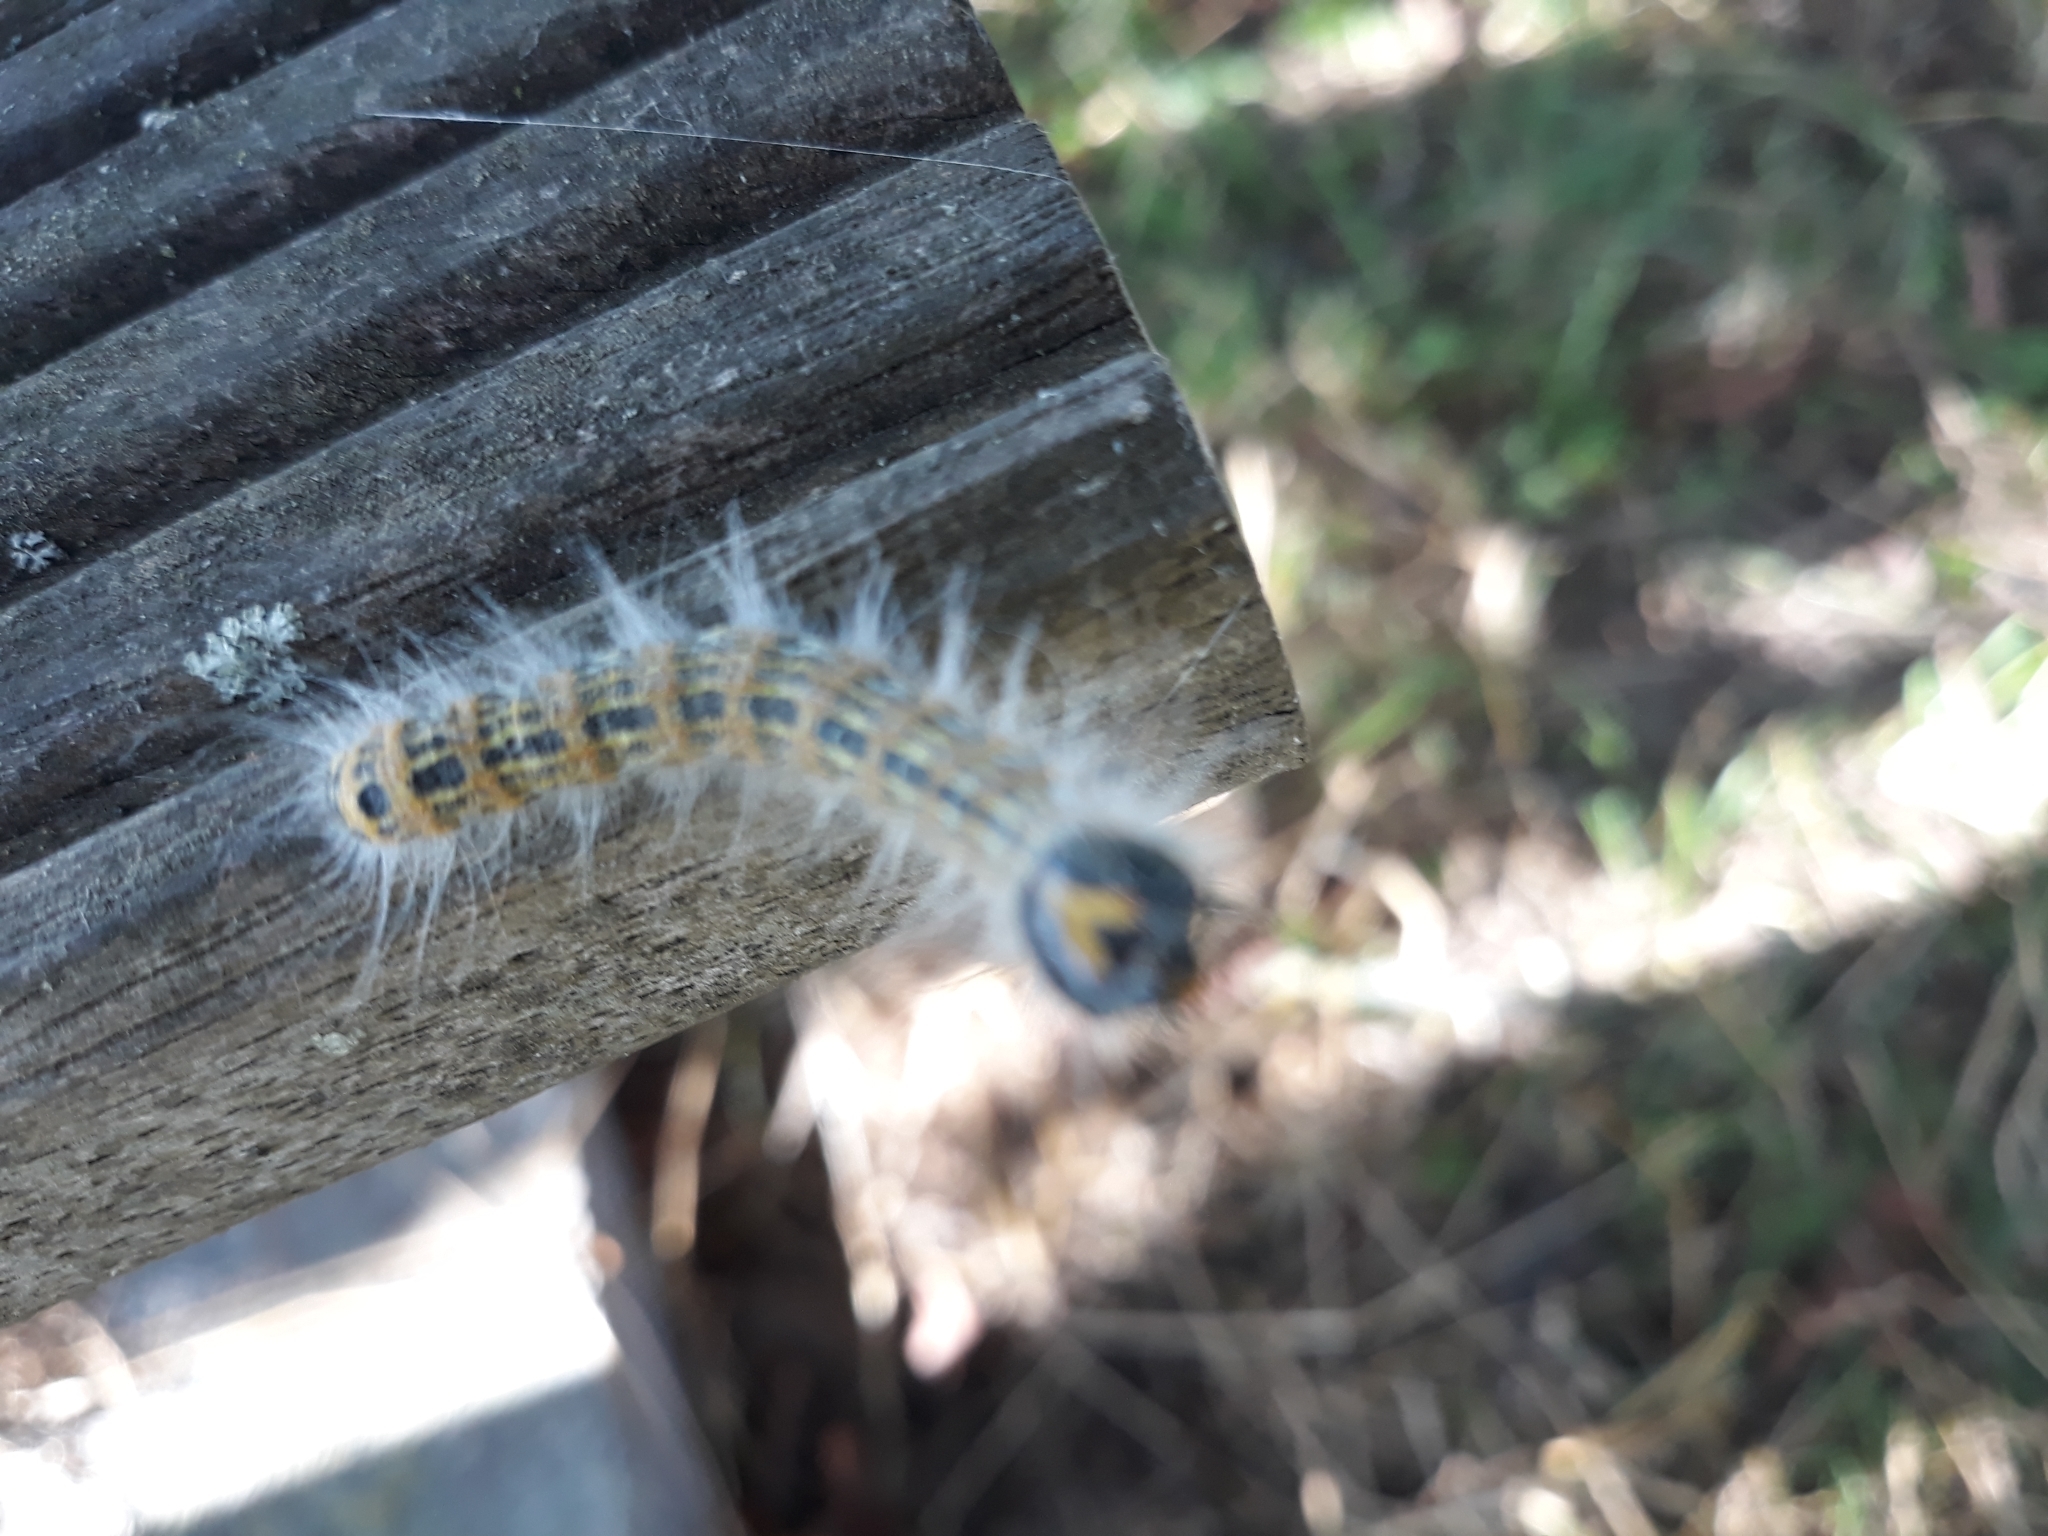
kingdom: Animalia
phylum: Arthropoda
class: Insecta
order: Lepidoptera
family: Notodontidae
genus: Phalera
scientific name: Phalera bucephala
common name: Buff-tip
